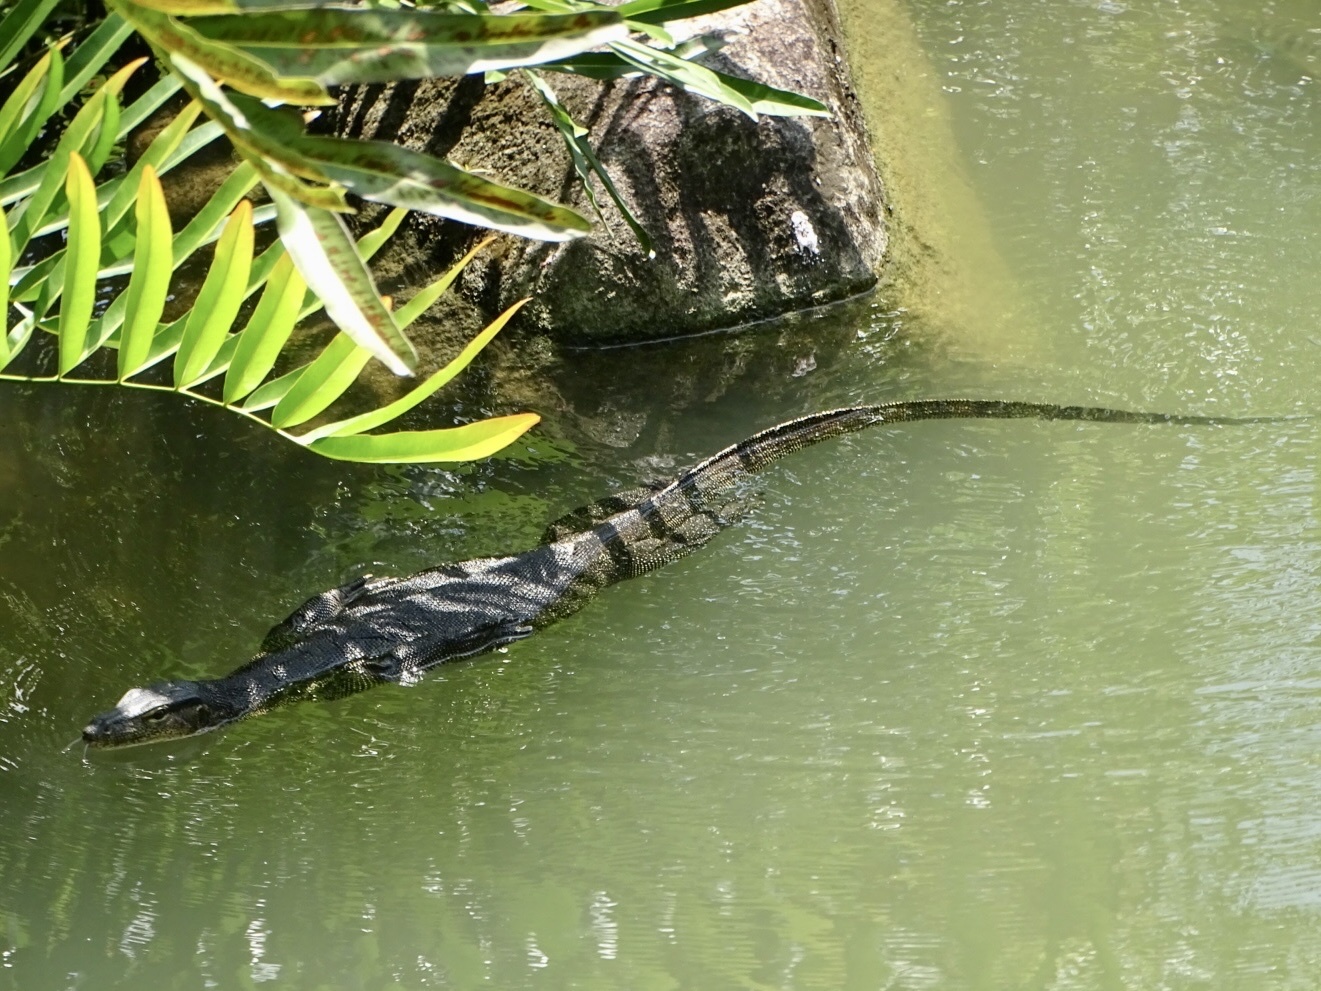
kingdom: Animalia
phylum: Chordata
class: Squamata
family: Varanidae
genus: Varanus
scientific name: Varanus salvator
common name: Common water monitor
